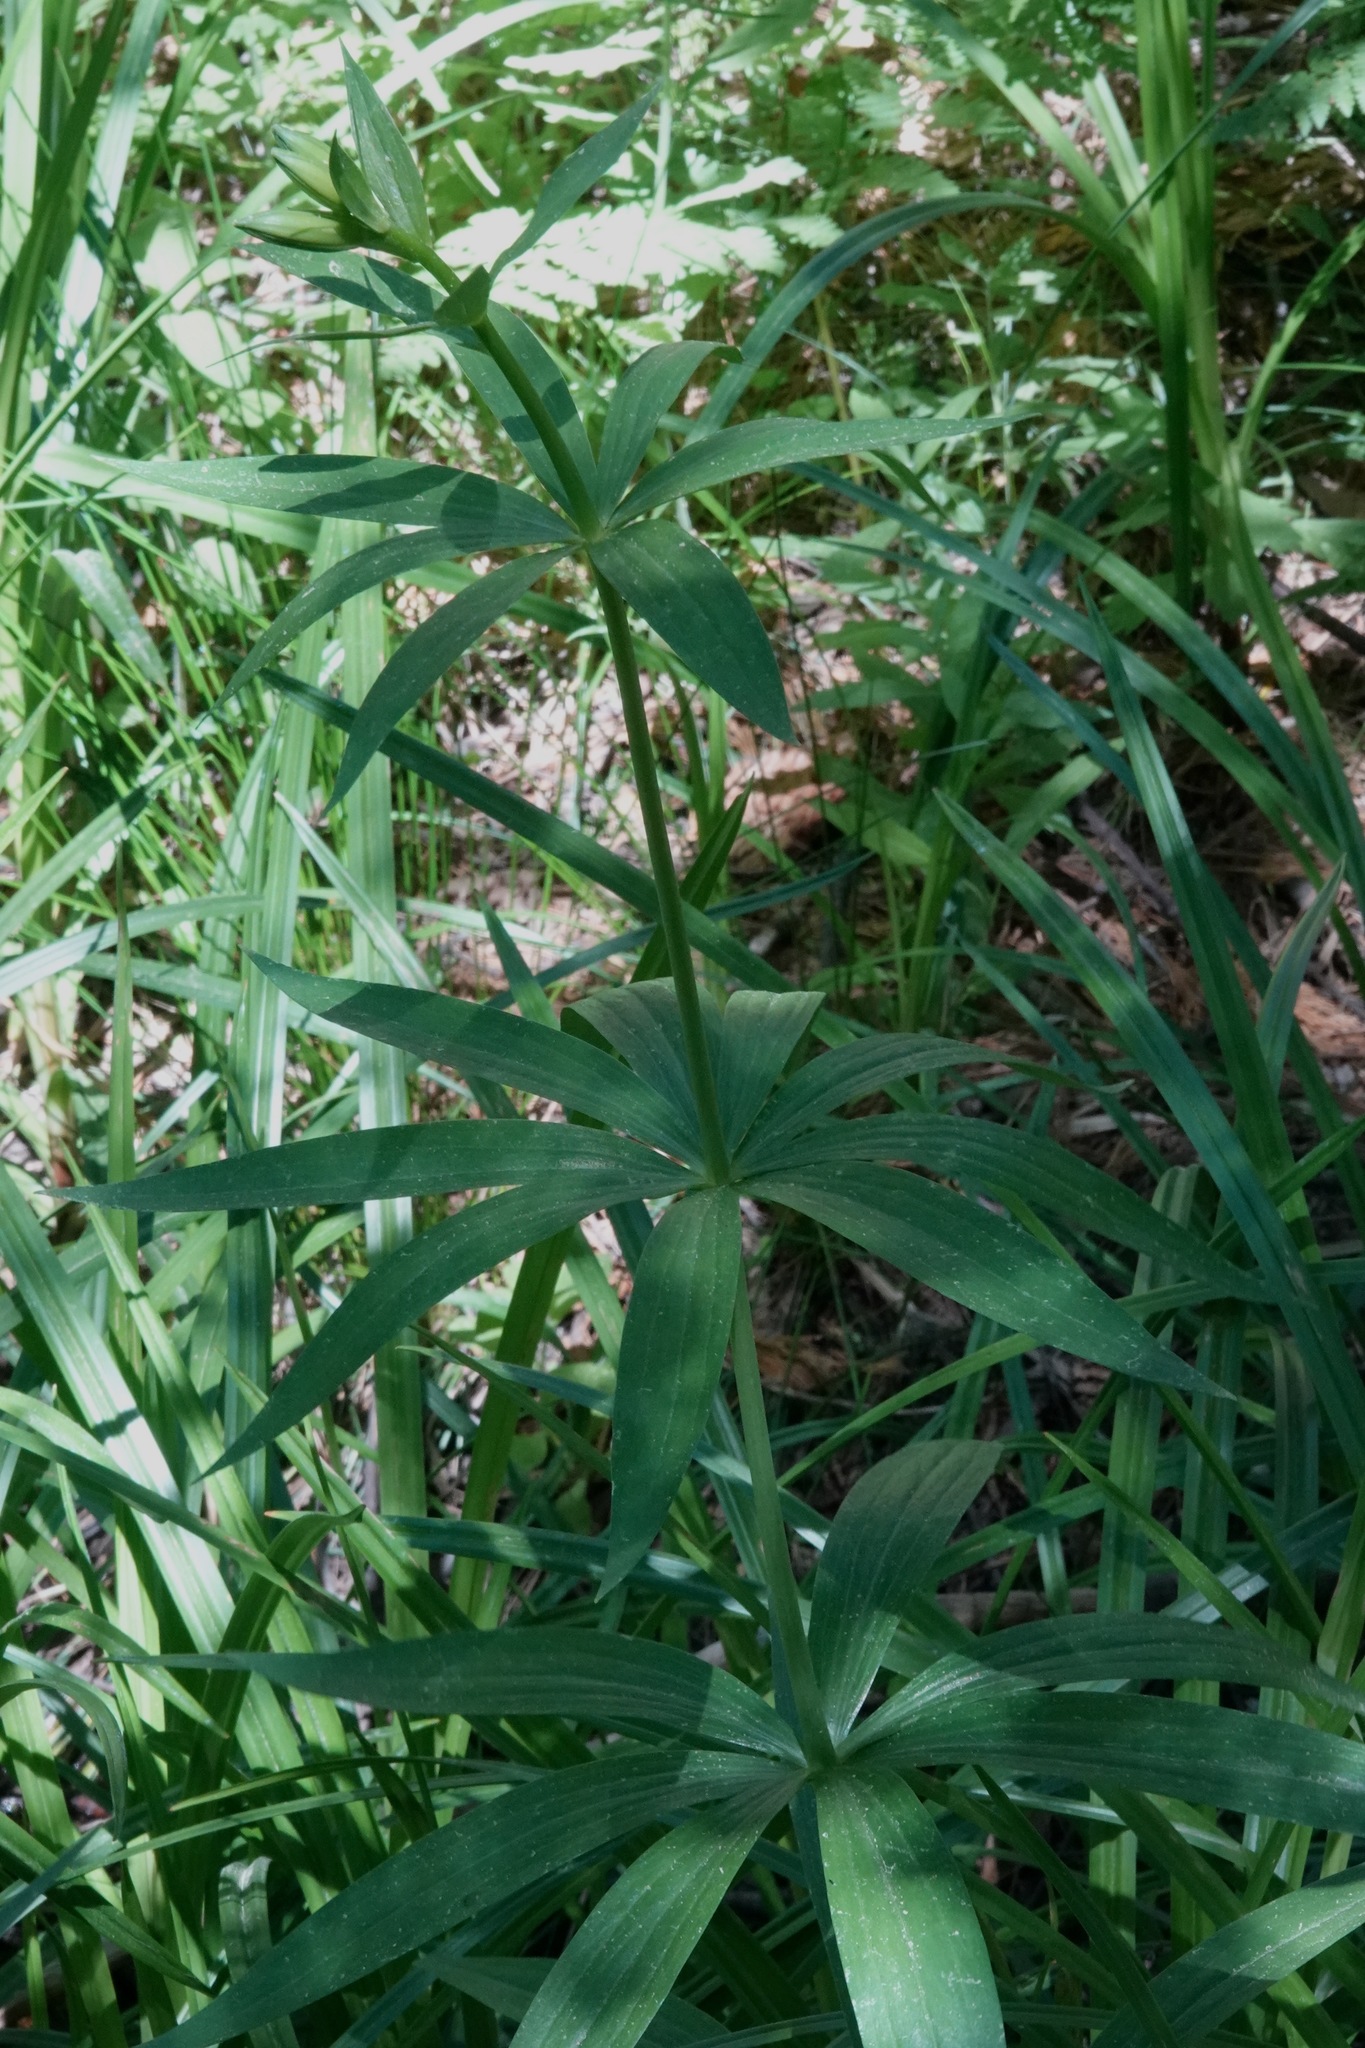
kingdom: Plantae
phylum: Tracheophyta
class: Liliopsida
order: Liliales
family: Liliaceae
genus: Lilium
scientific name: Lilium parryi
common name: Lemon lily
